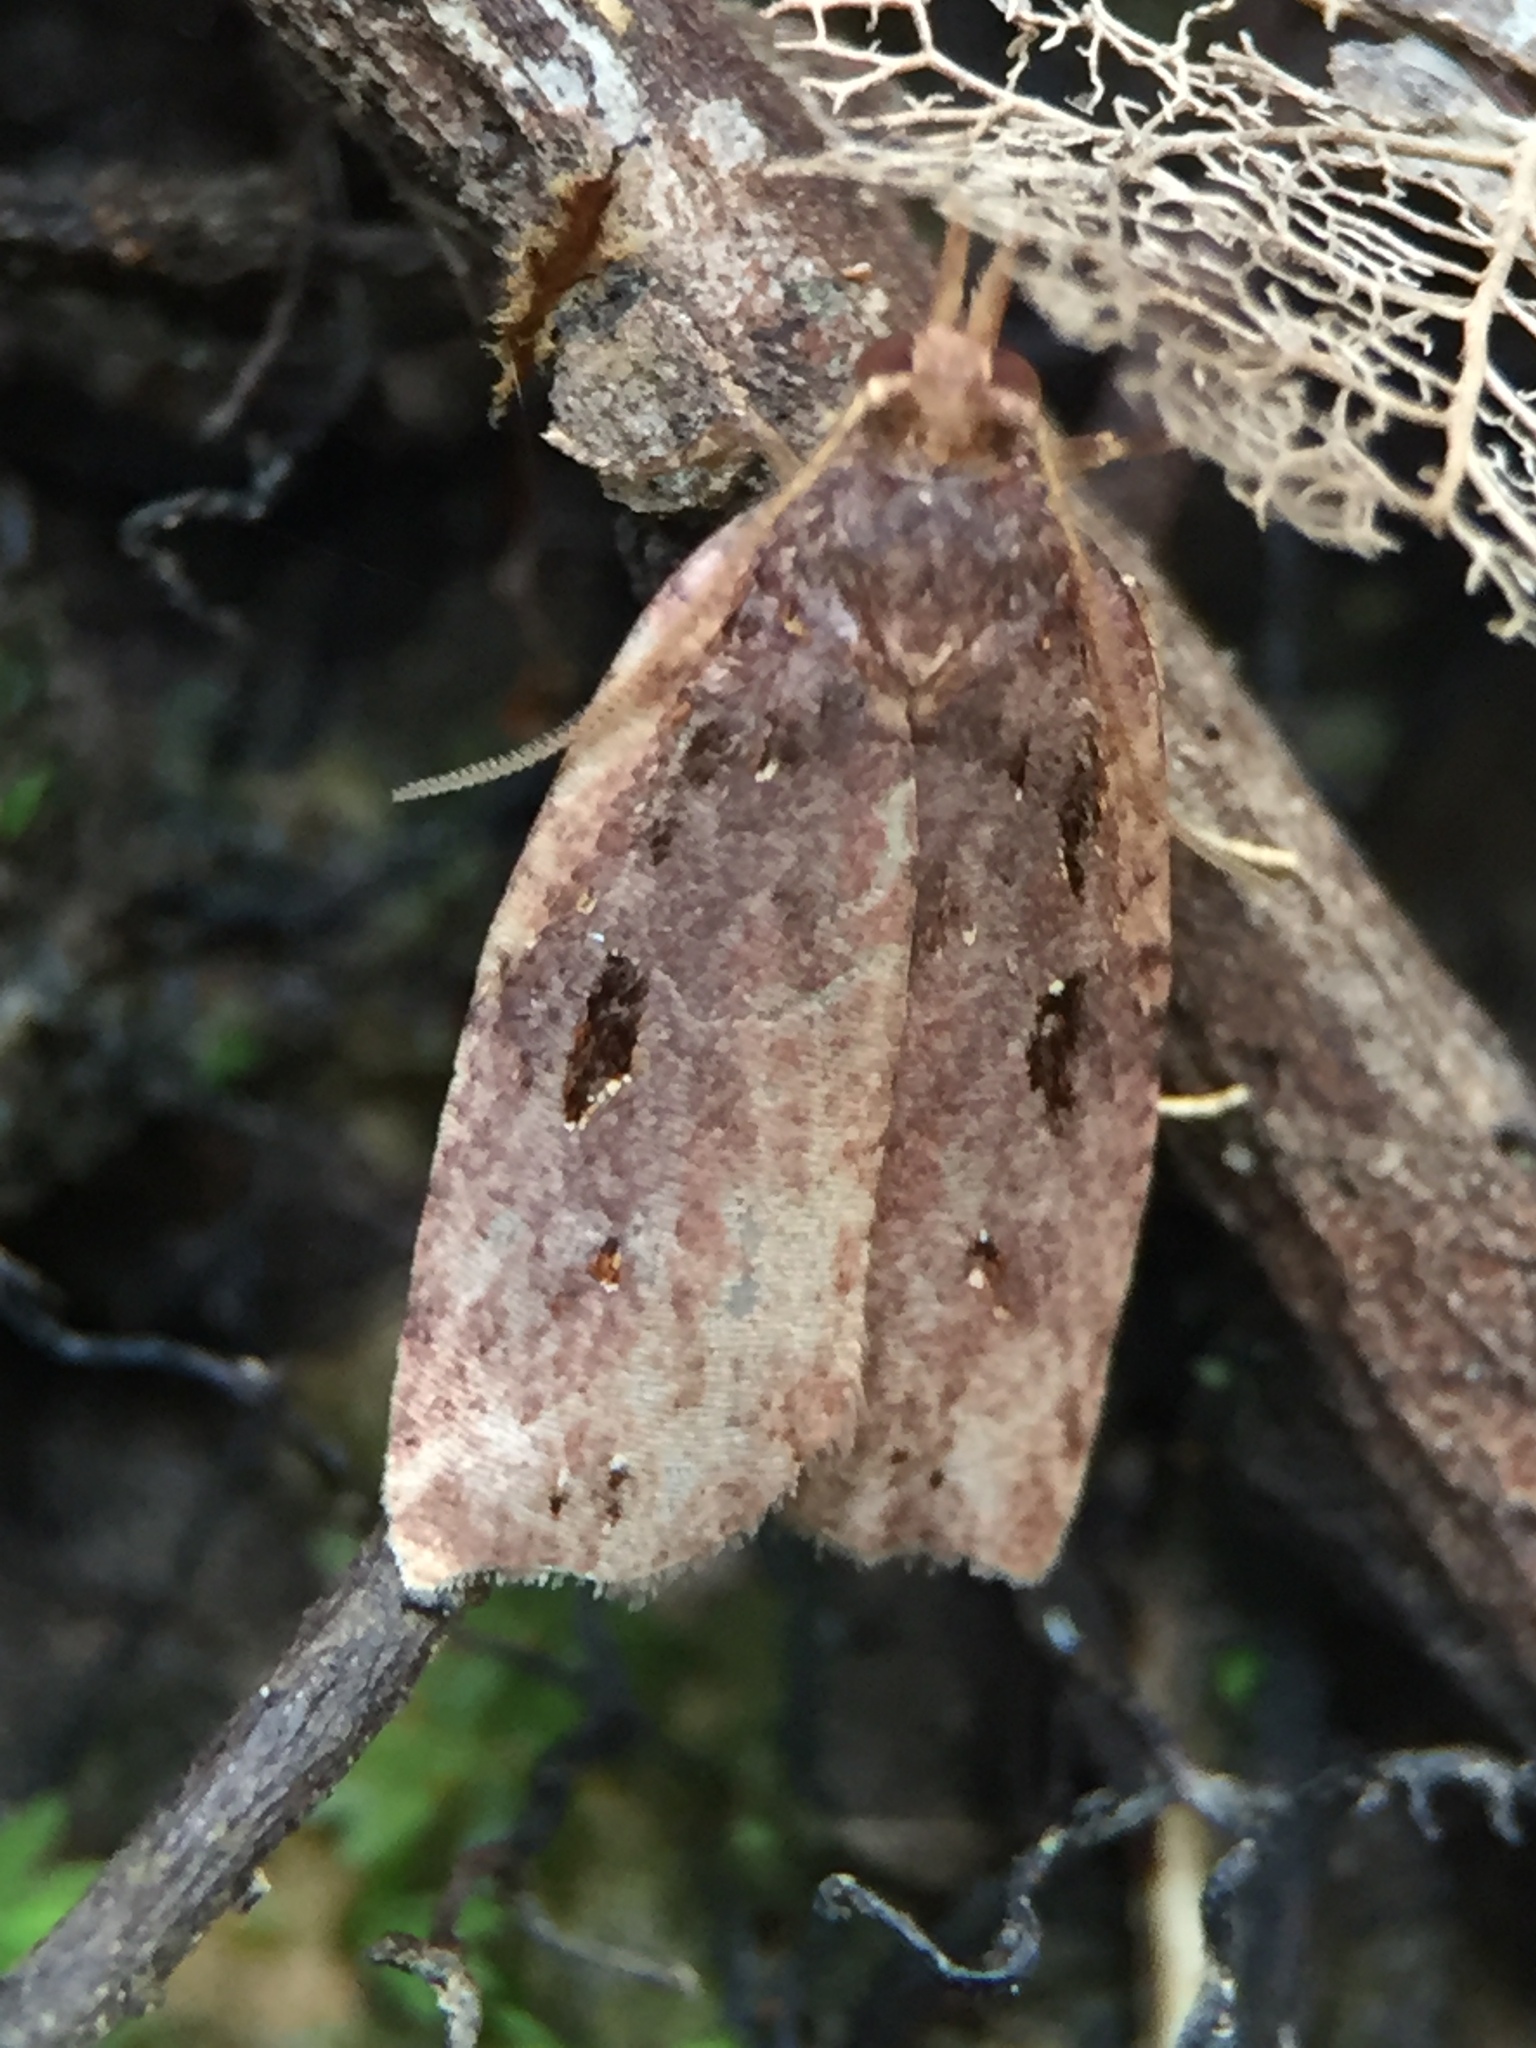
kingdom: Animalia
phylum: Arthropoda
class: Insecta
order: Lepidoptera
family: Tortricidae
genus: Ctenopseustis
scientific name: Ctenopseustis fraterna
